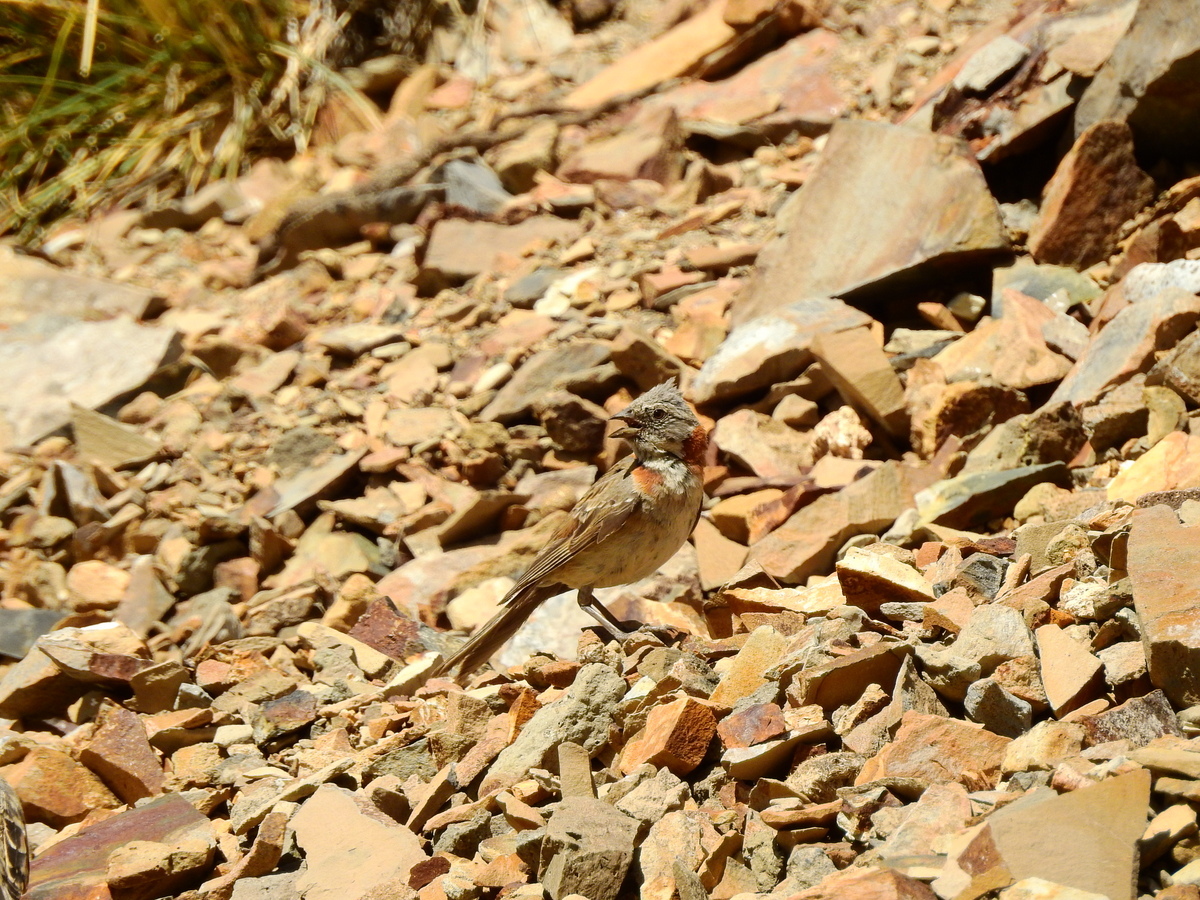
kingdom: Animalia
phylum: Chordata
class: Aves
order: Passeriformes
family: Passerellidae
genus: Zonotrichia
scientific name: Zonotrichia capensis
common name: Rufous-collared sparrow
